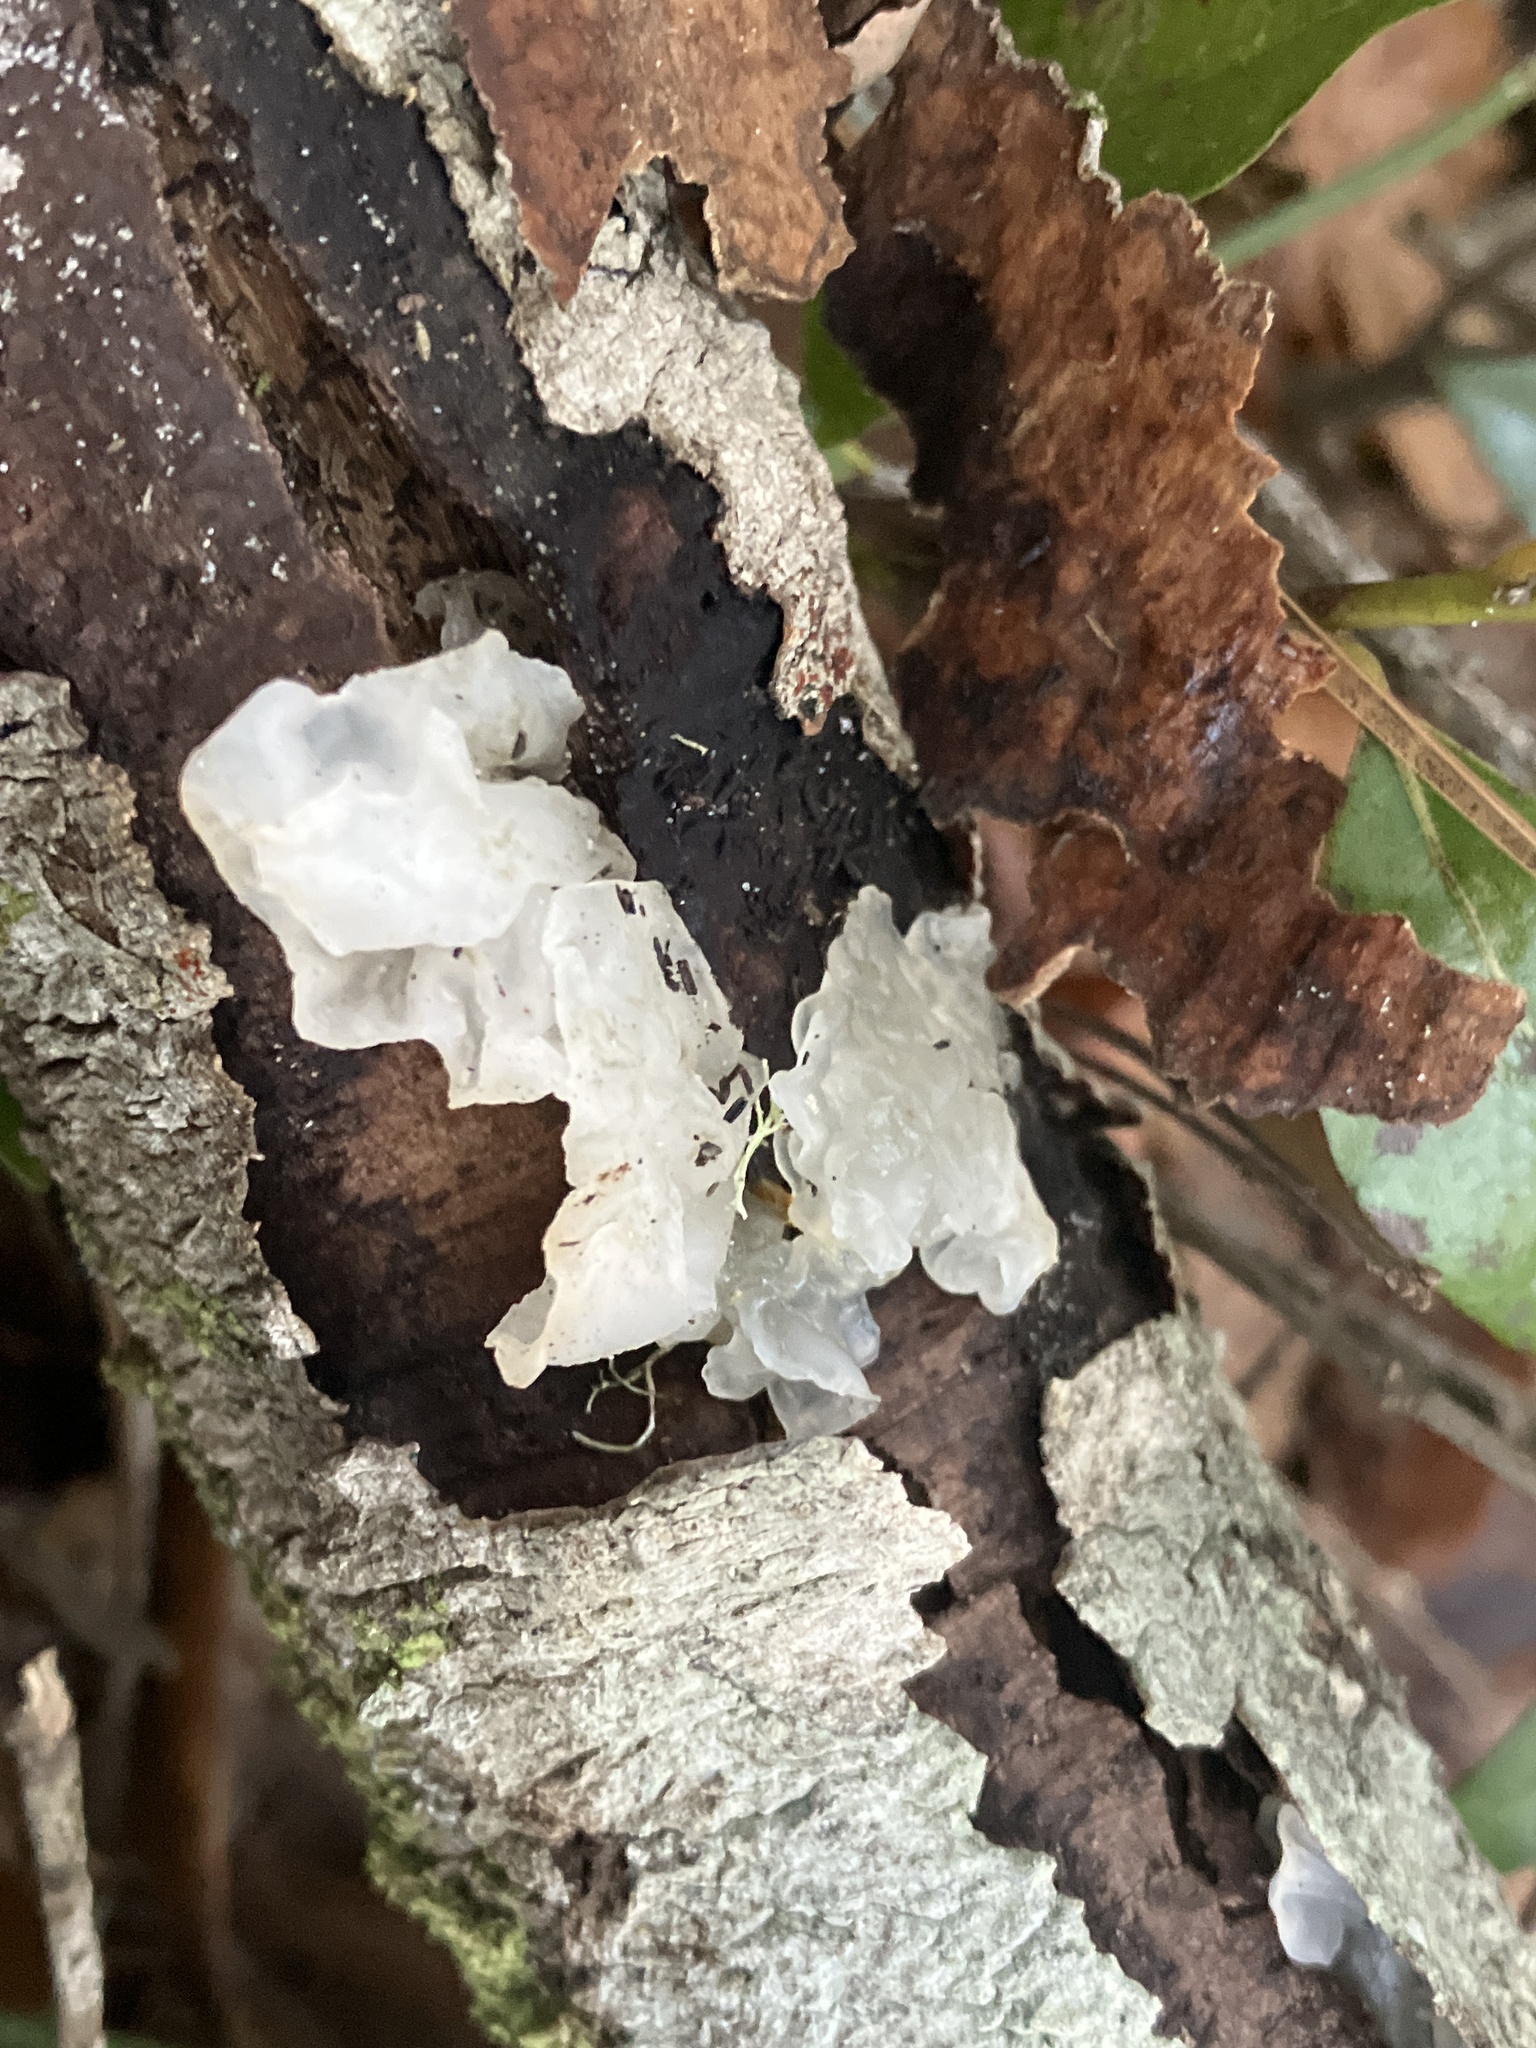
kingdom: Fungi
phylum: Basidiomycota
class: Tremellomycetes
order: Tremellales
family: Tremellaceae
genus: Tremella
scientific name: Tremella fuciformis
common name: Snow fungus
